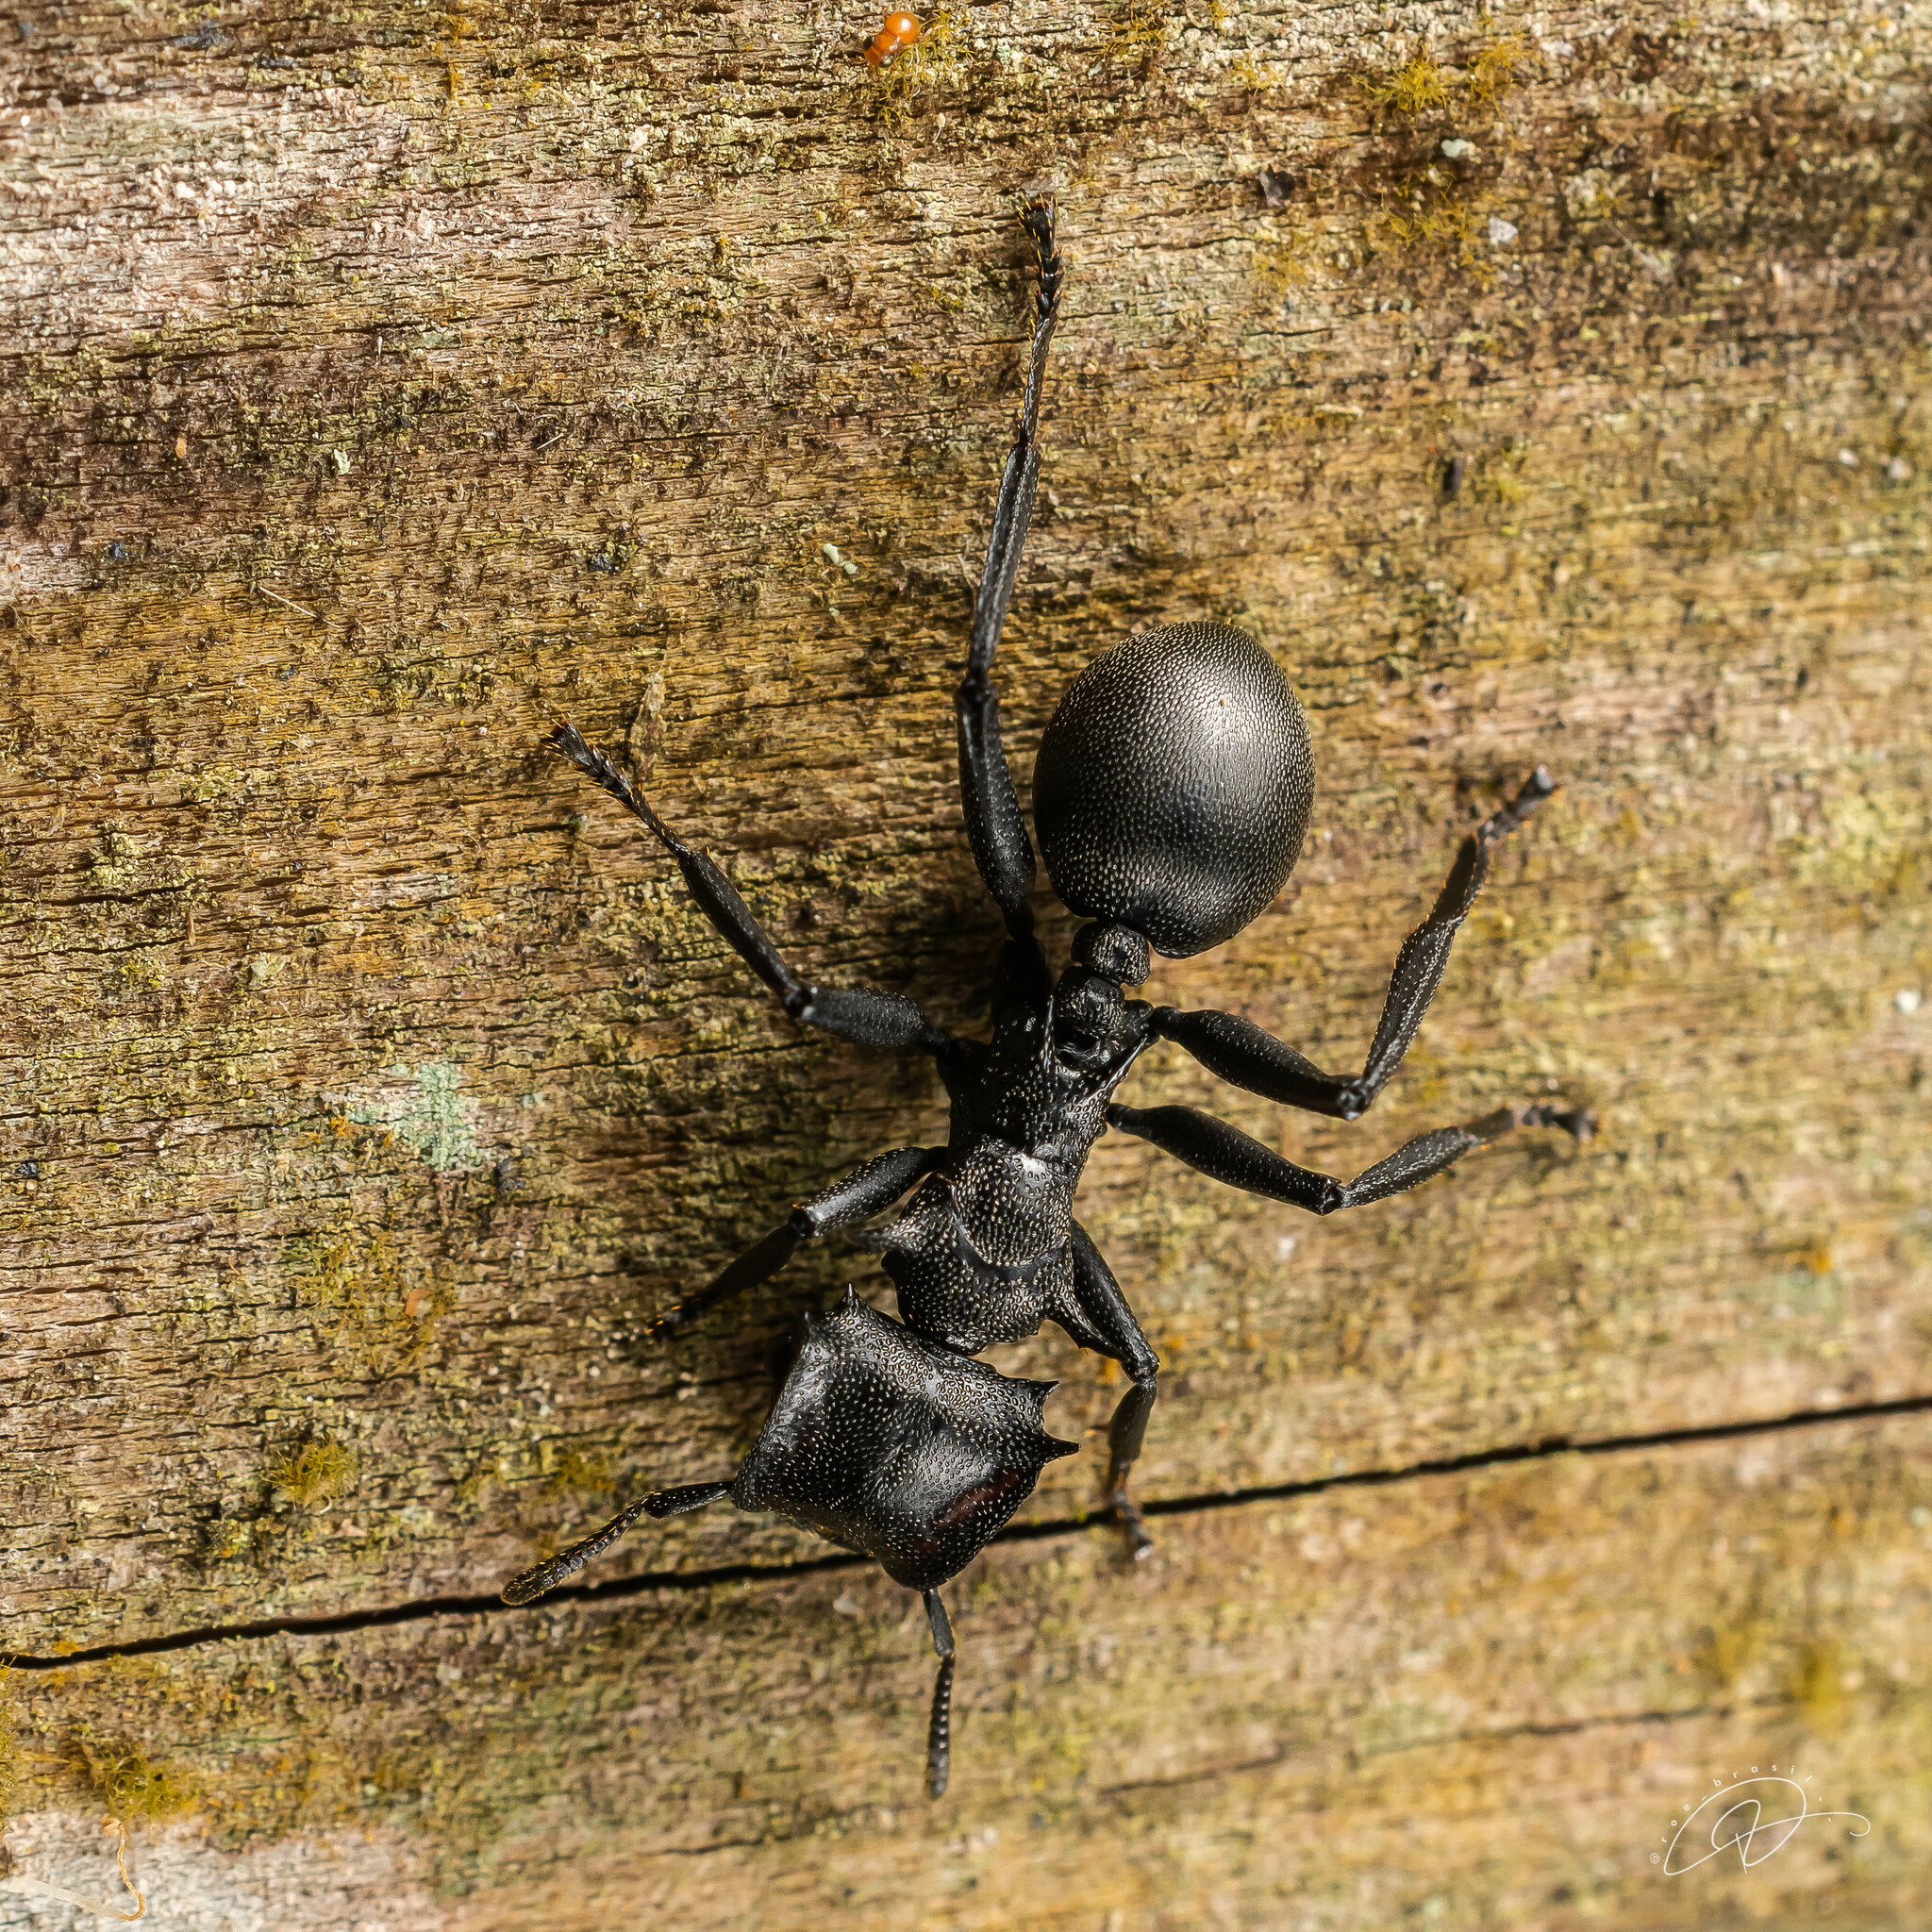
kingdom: Animalia
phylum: Arthropoda
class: Insecta
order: Hymenoptera
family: Formicidae
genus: Cephalotes
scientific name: Cephalotes atratus
